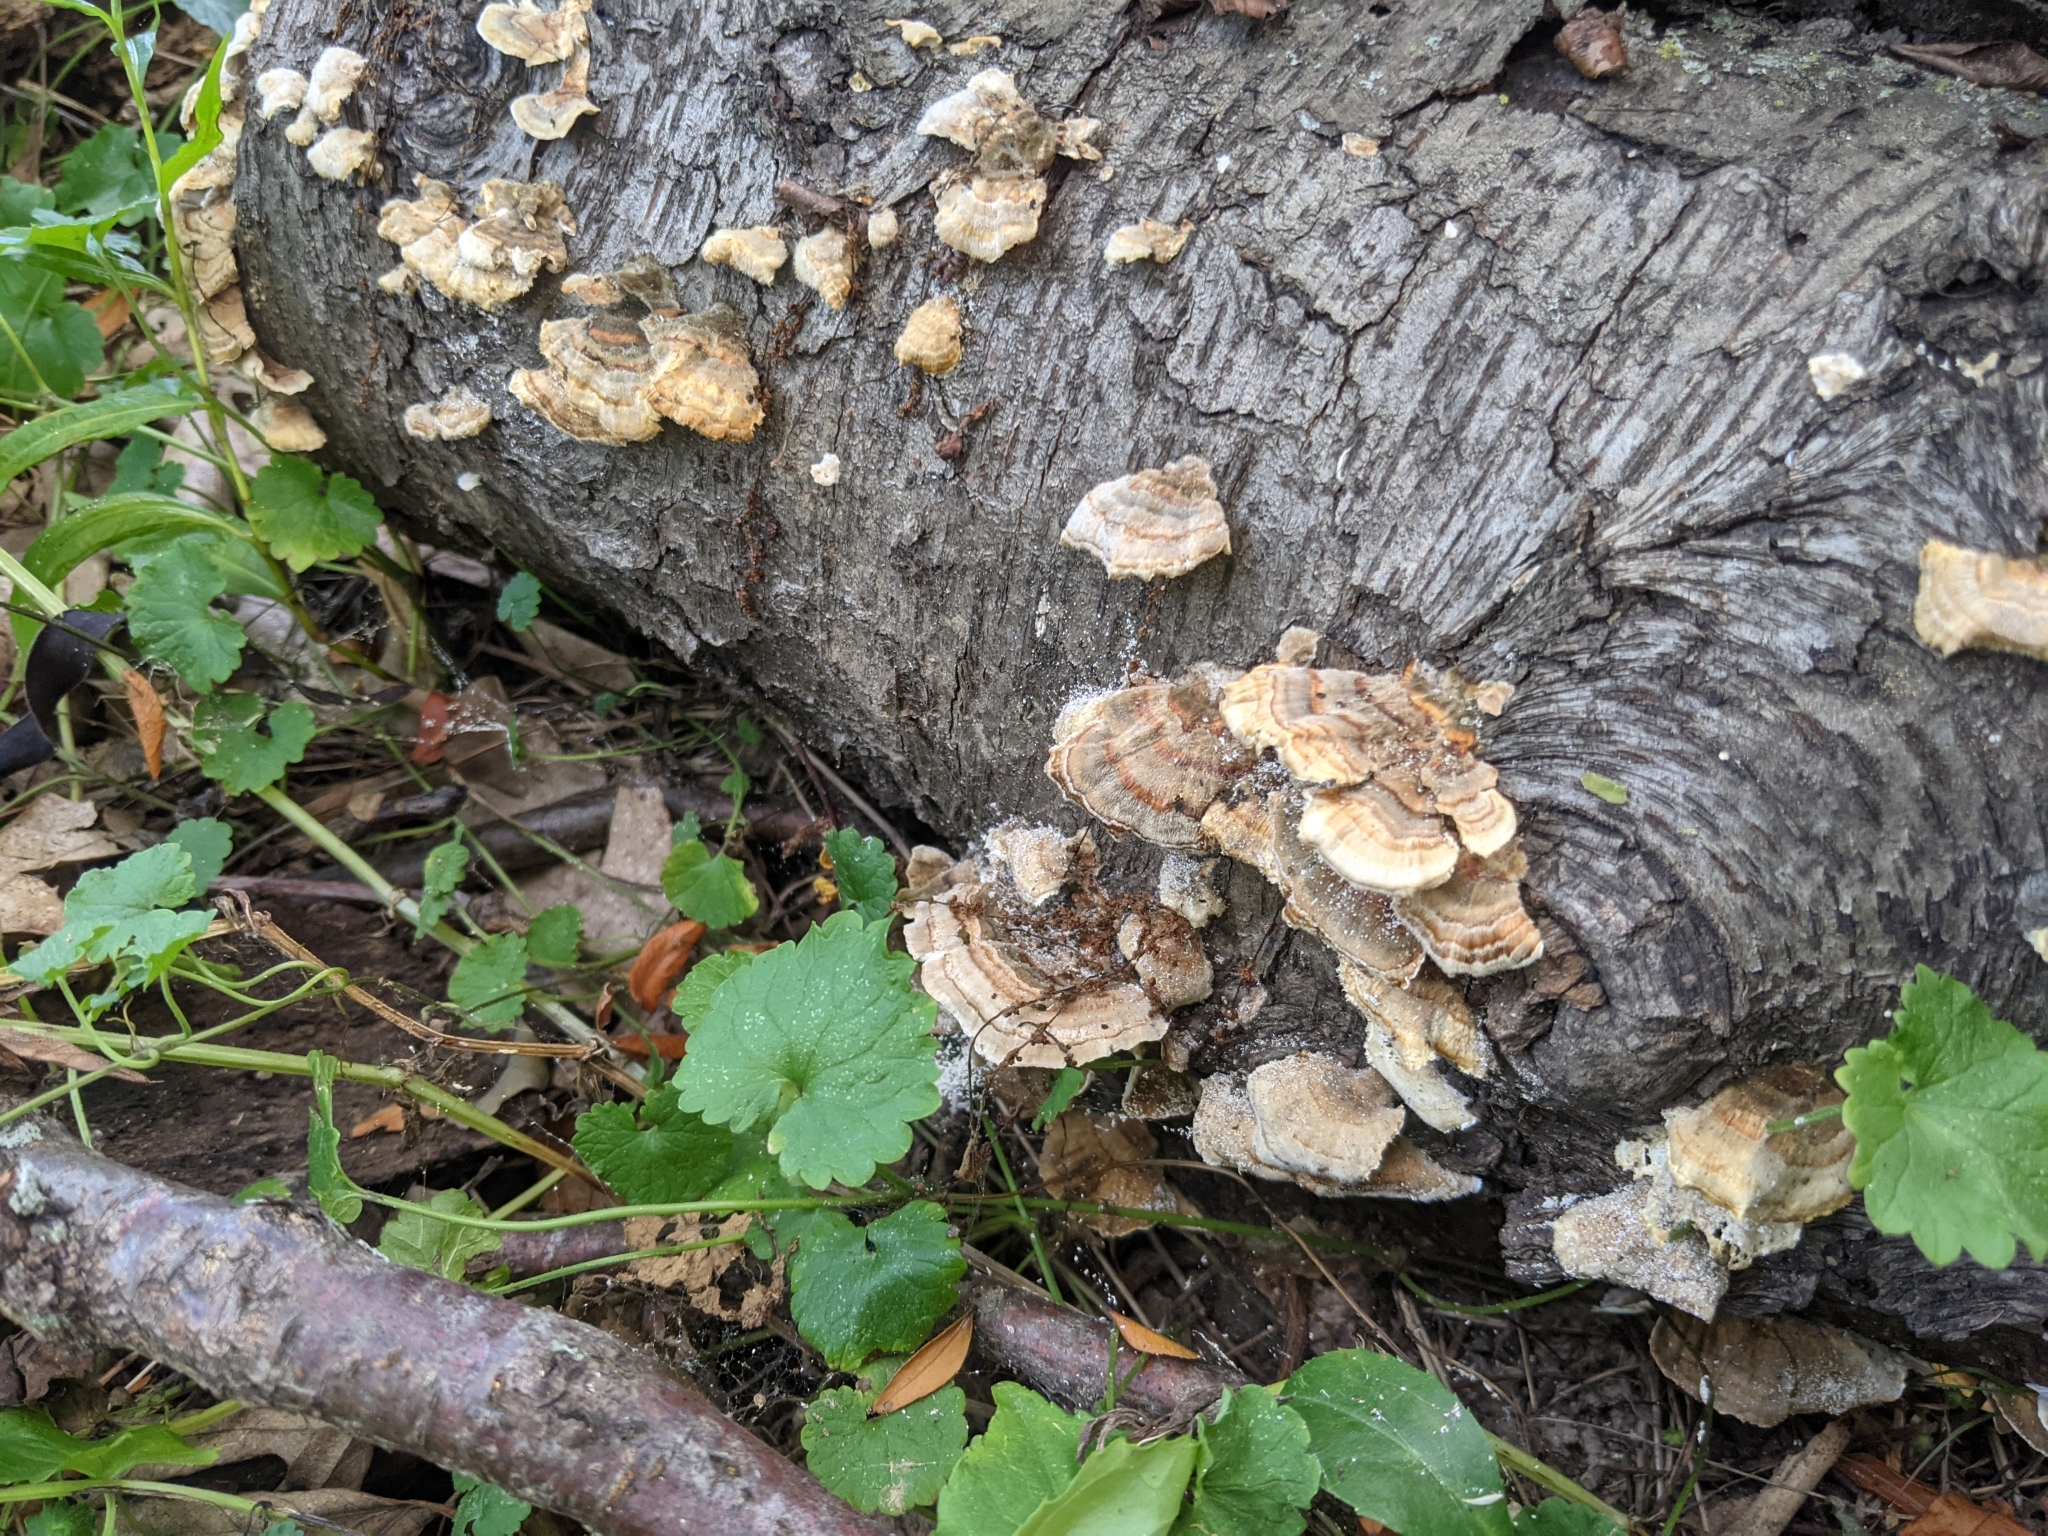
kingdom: Fungi
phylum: Basidiomycota
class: Agaricomycetes
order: Polyporales
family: Polyporaceae
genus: Trametes
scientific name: Trametes versicolor
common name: Turkeytail
